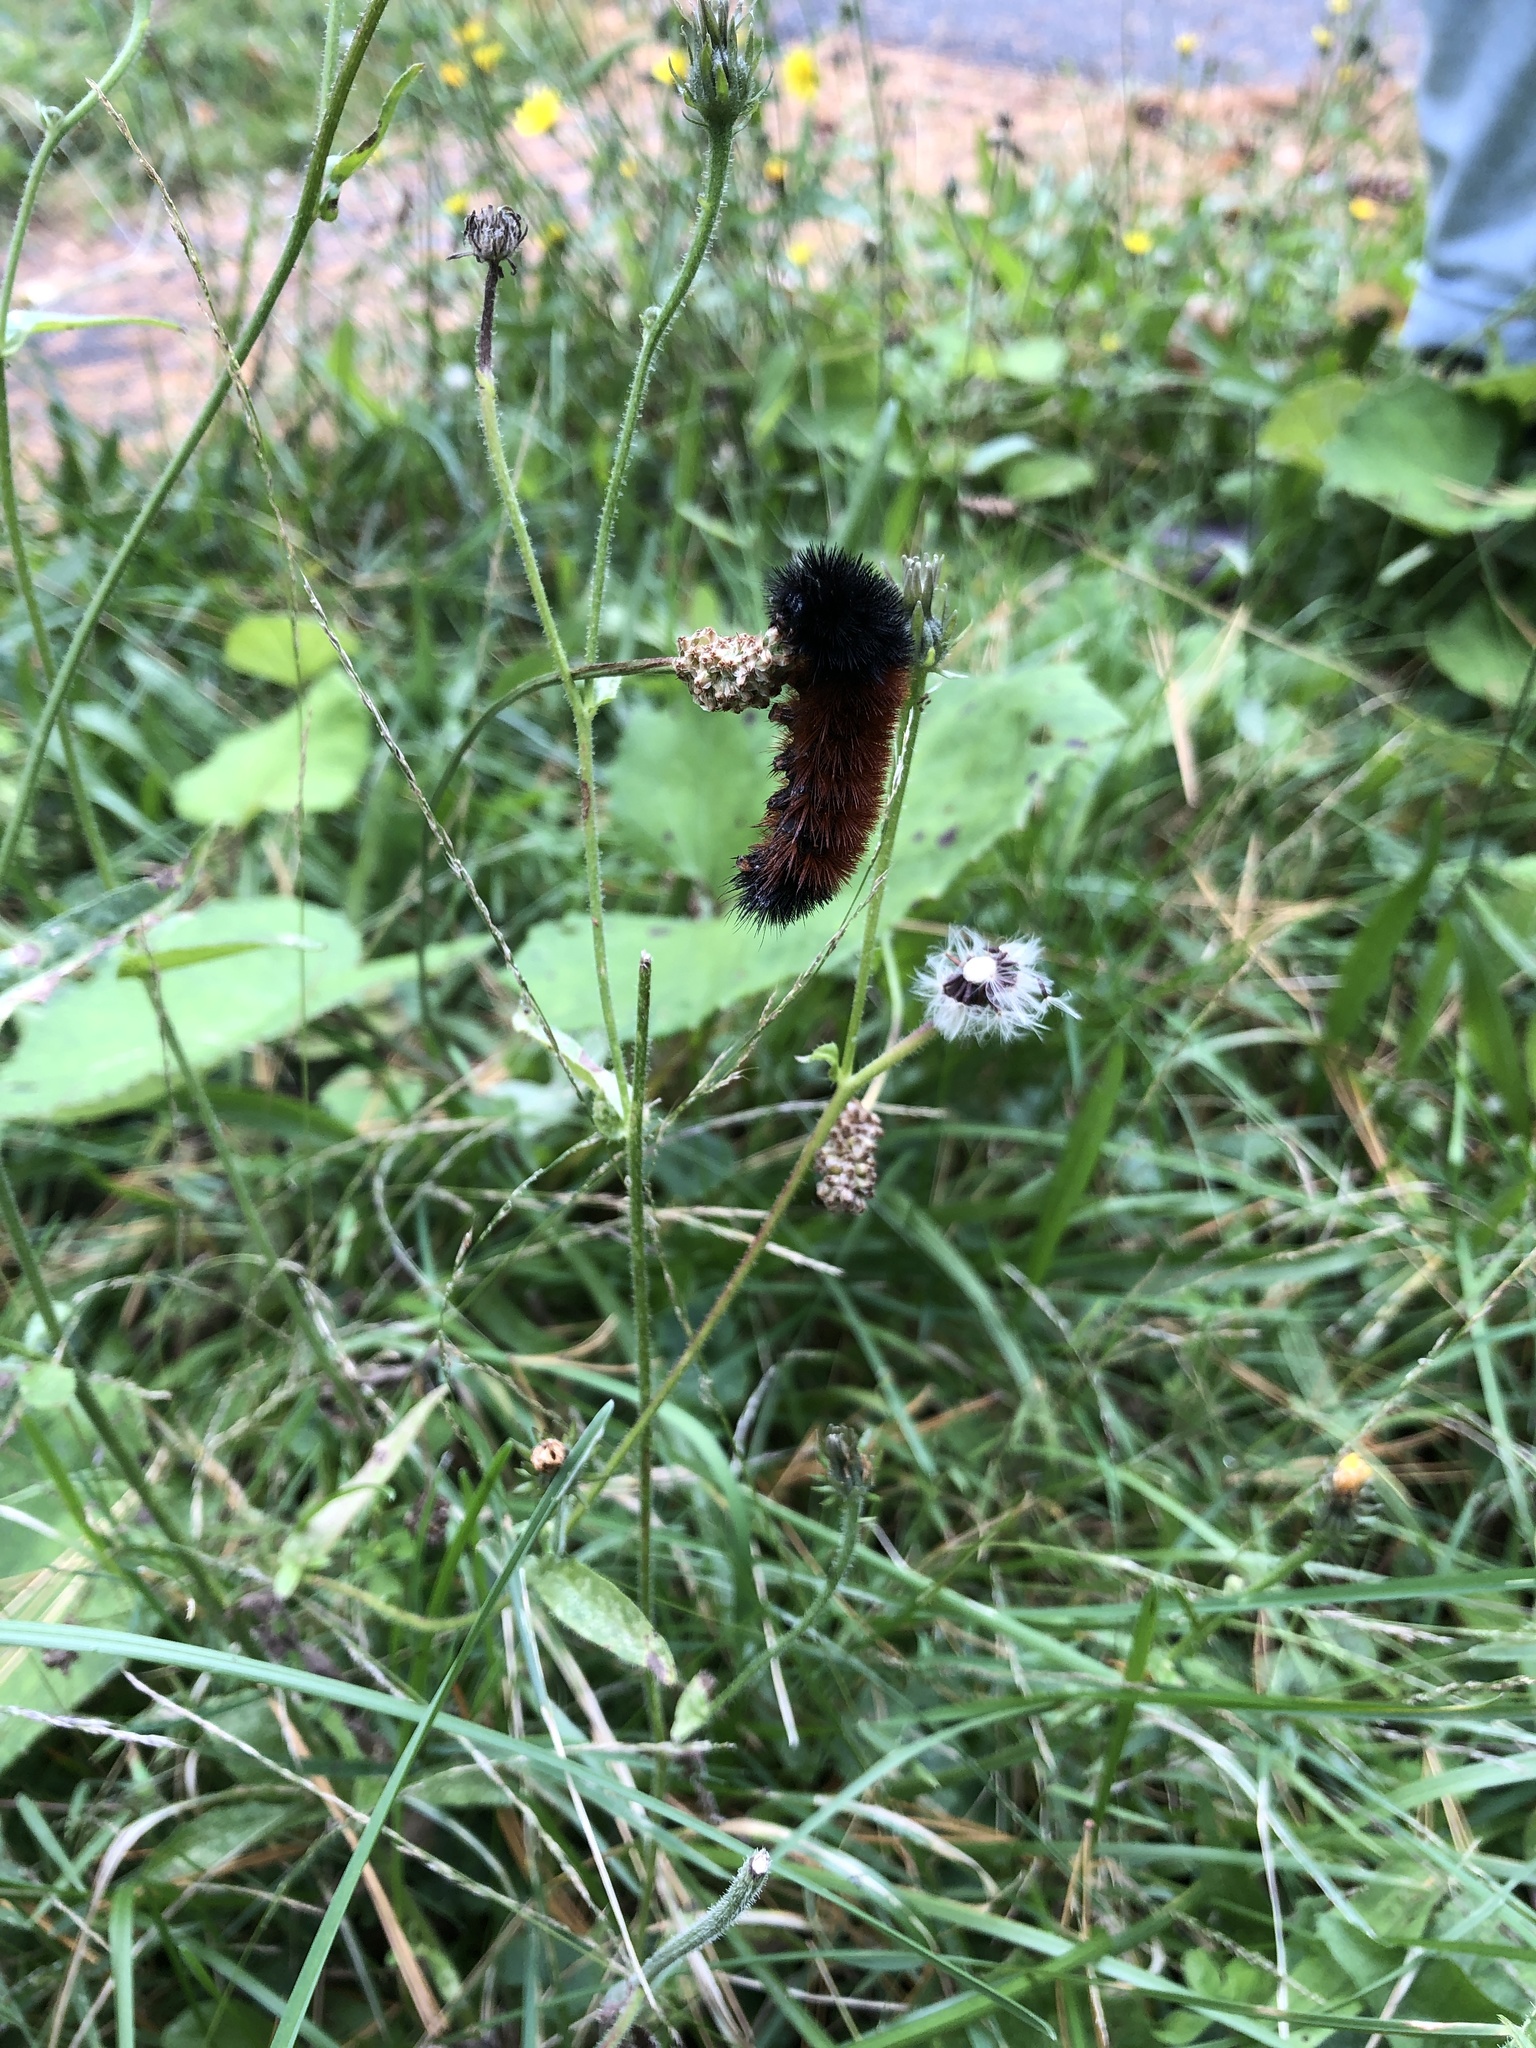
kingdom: Animalia
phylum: Arthropoda
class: Insecta
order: Lepidoptera
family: Erebidae
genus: Pyrrharctia
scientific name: Pyrrharctia isabella
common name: Isabella tiger moth
